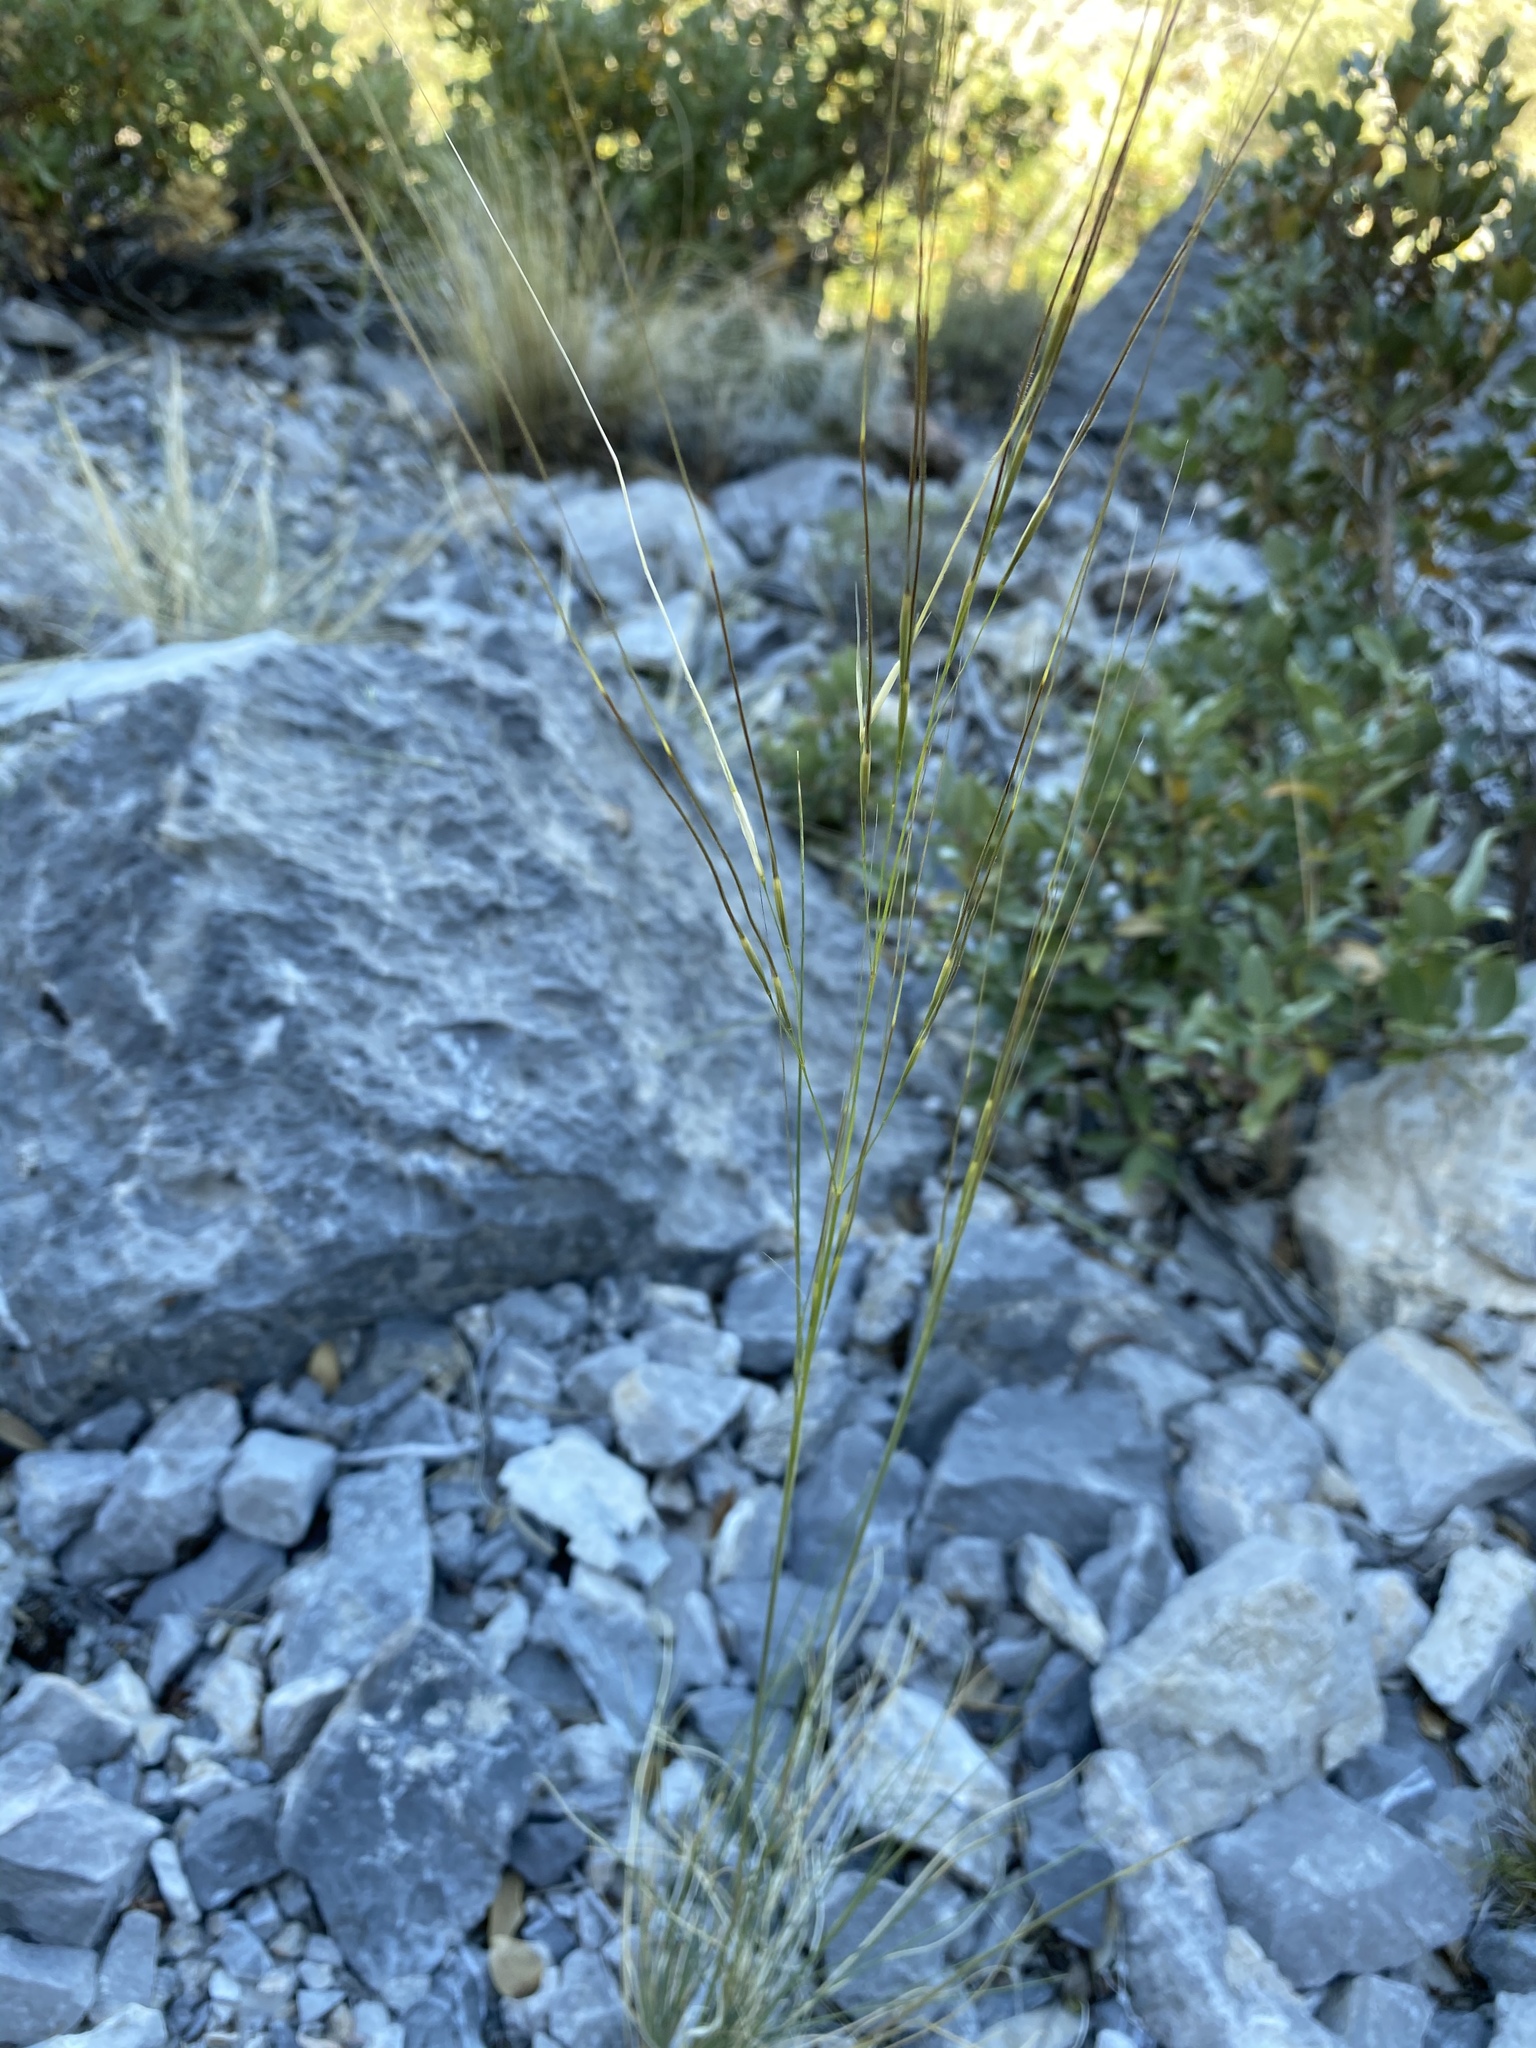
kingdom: Plantae
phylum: Tracheophyta
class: Liliopsida
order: Poales
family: Poaceae
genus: Hesperostipa
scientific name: Hesperostipa comata
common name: Needle-and-thread grass
